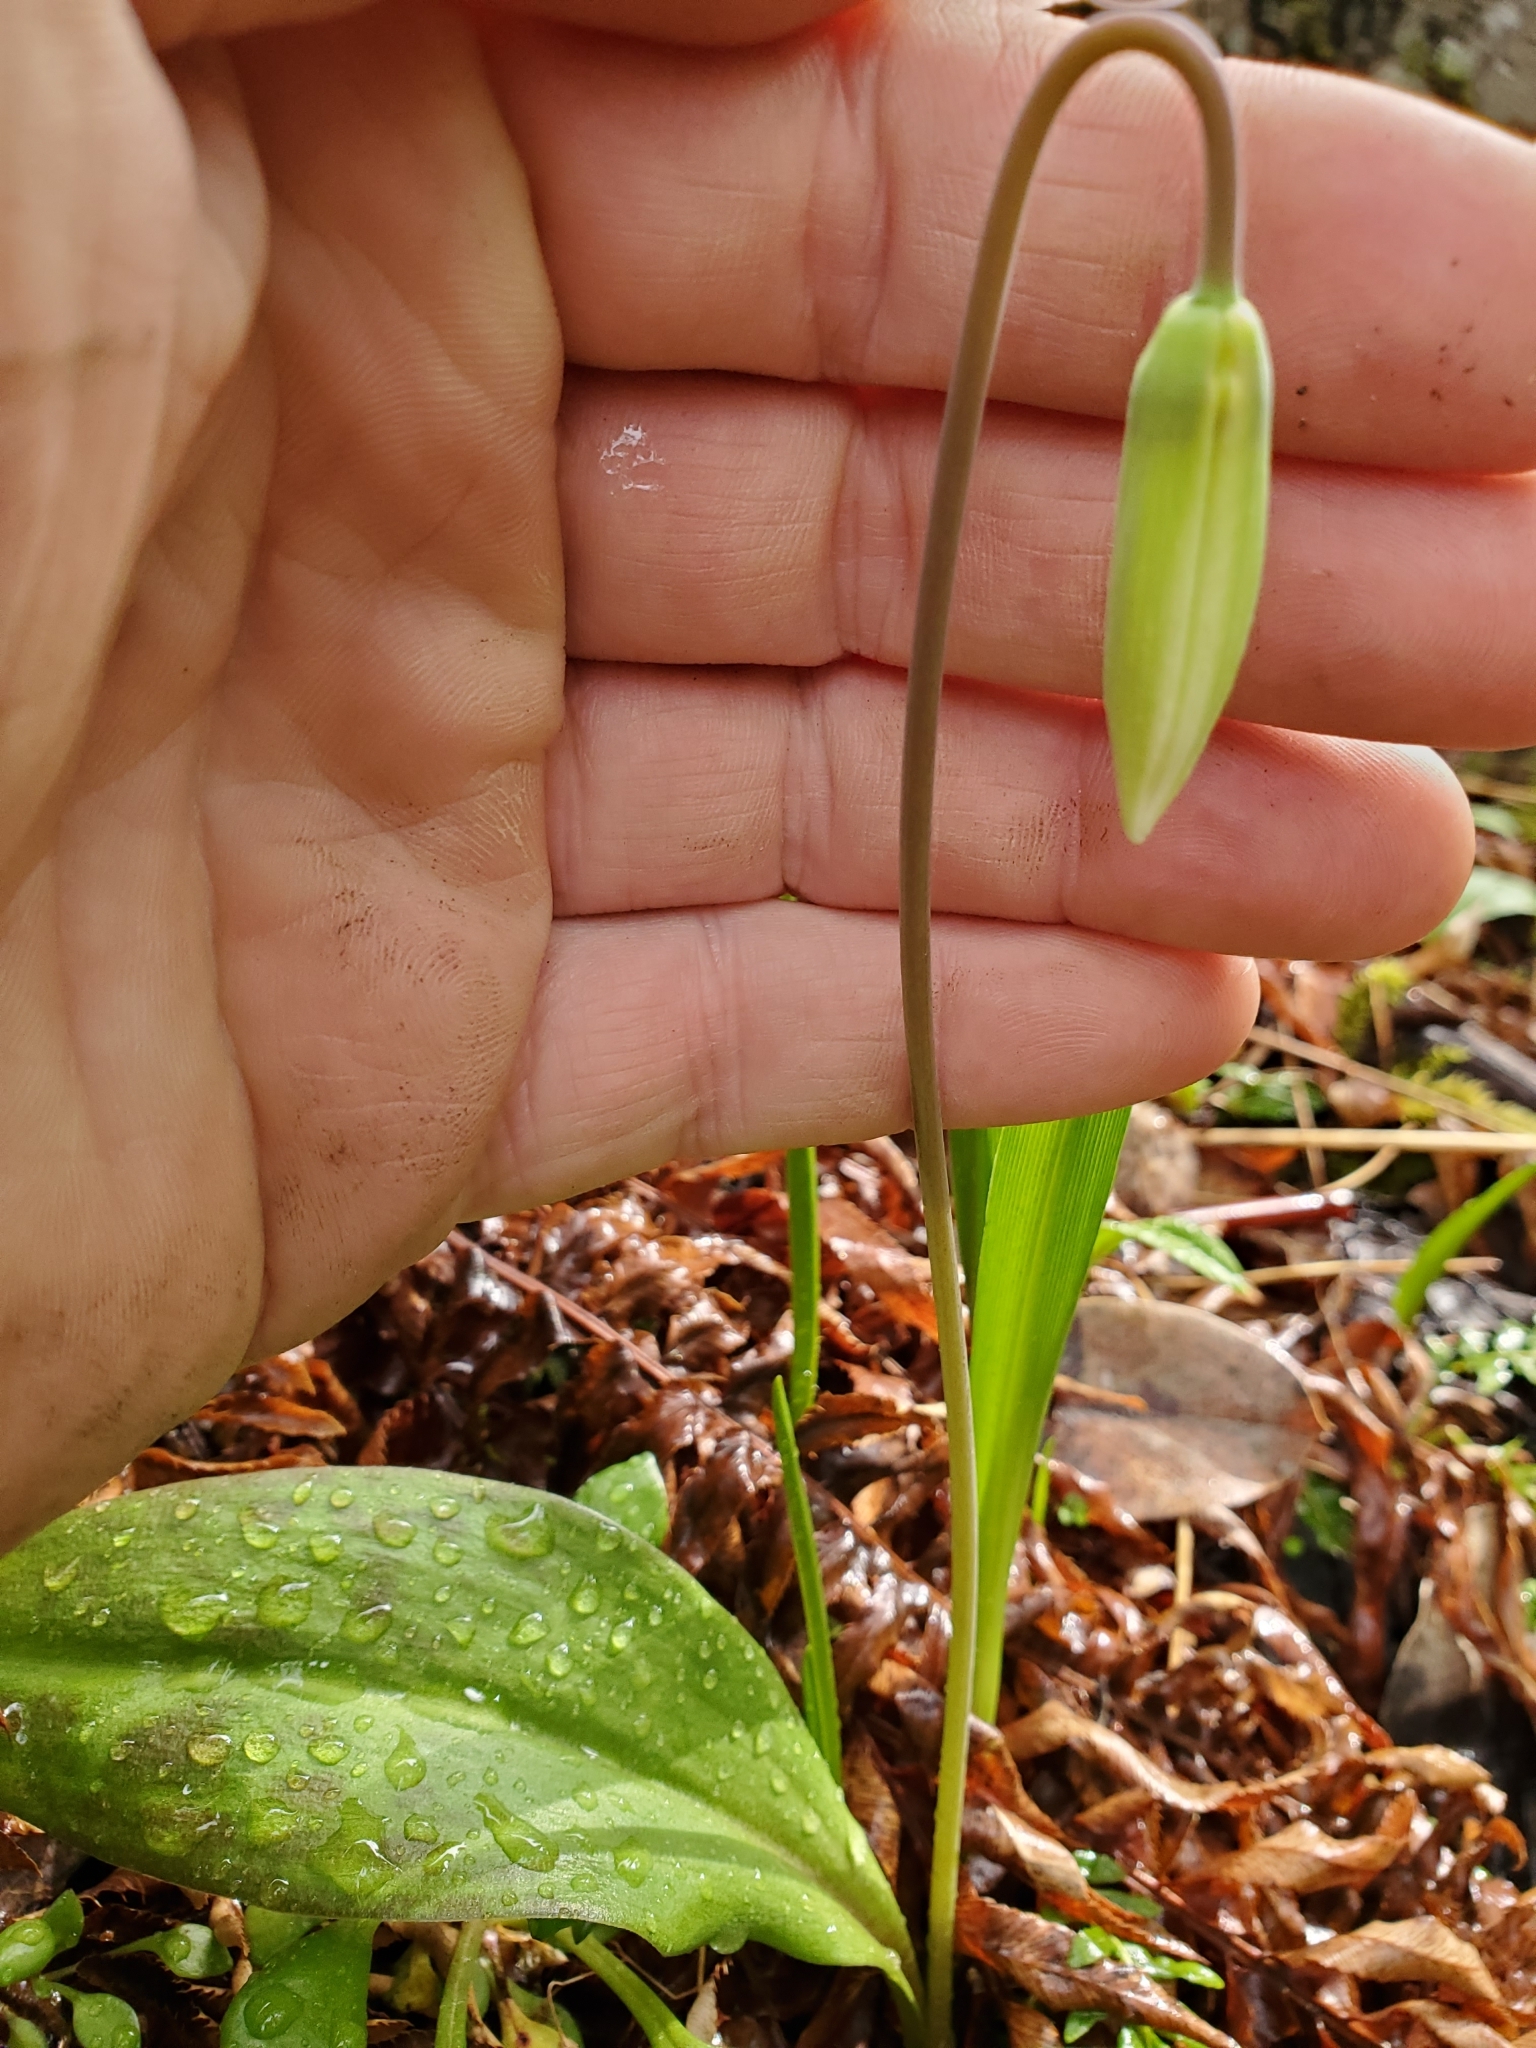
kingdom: Plantae
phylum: Tracheophyta
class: Liliopsida
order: Liliales
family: Liliaceae
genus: Erythronium
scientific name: Erythronium oregonum
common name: Giant adder's-tongue
